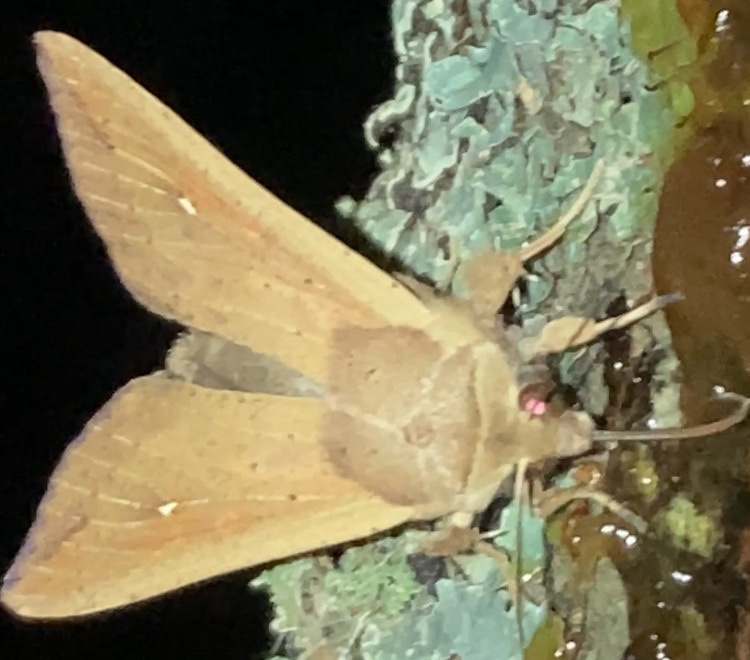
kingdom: Animalia
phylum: Arthropoda
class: Insecta
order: Lepidoptera
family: Noctuidae
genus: Mythimna
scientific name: Mythimna unipuncta
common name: White-speck
